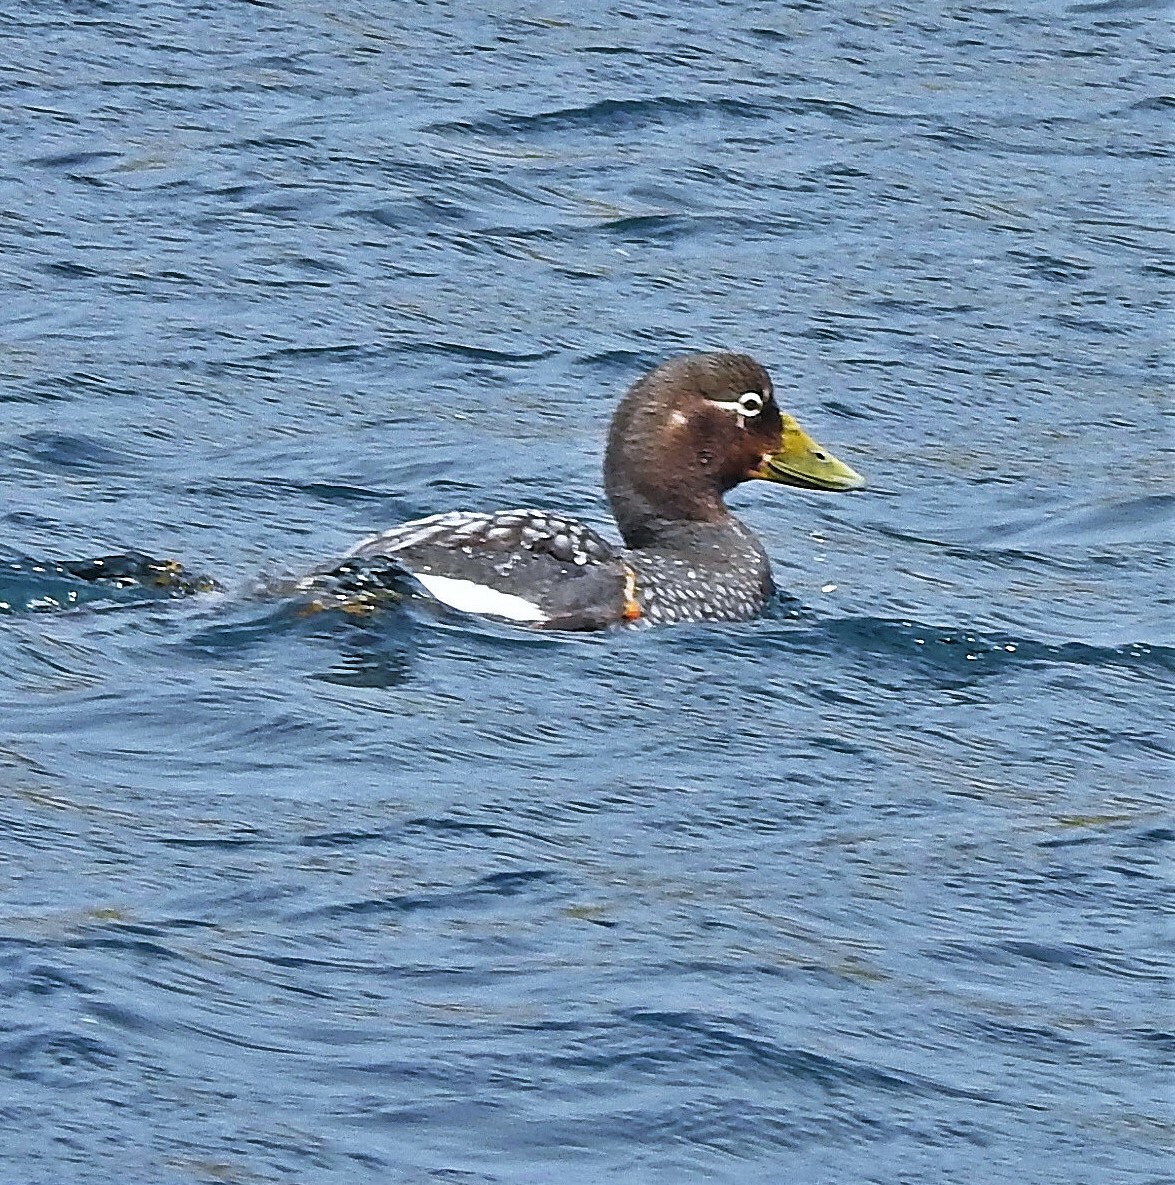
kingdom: Animalia
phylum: Chordata
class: Aves
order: Anseriformes
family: Anatidae
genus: Tachyeres
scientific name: Tachyeres brachypterus
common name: Falkland steamer duck
